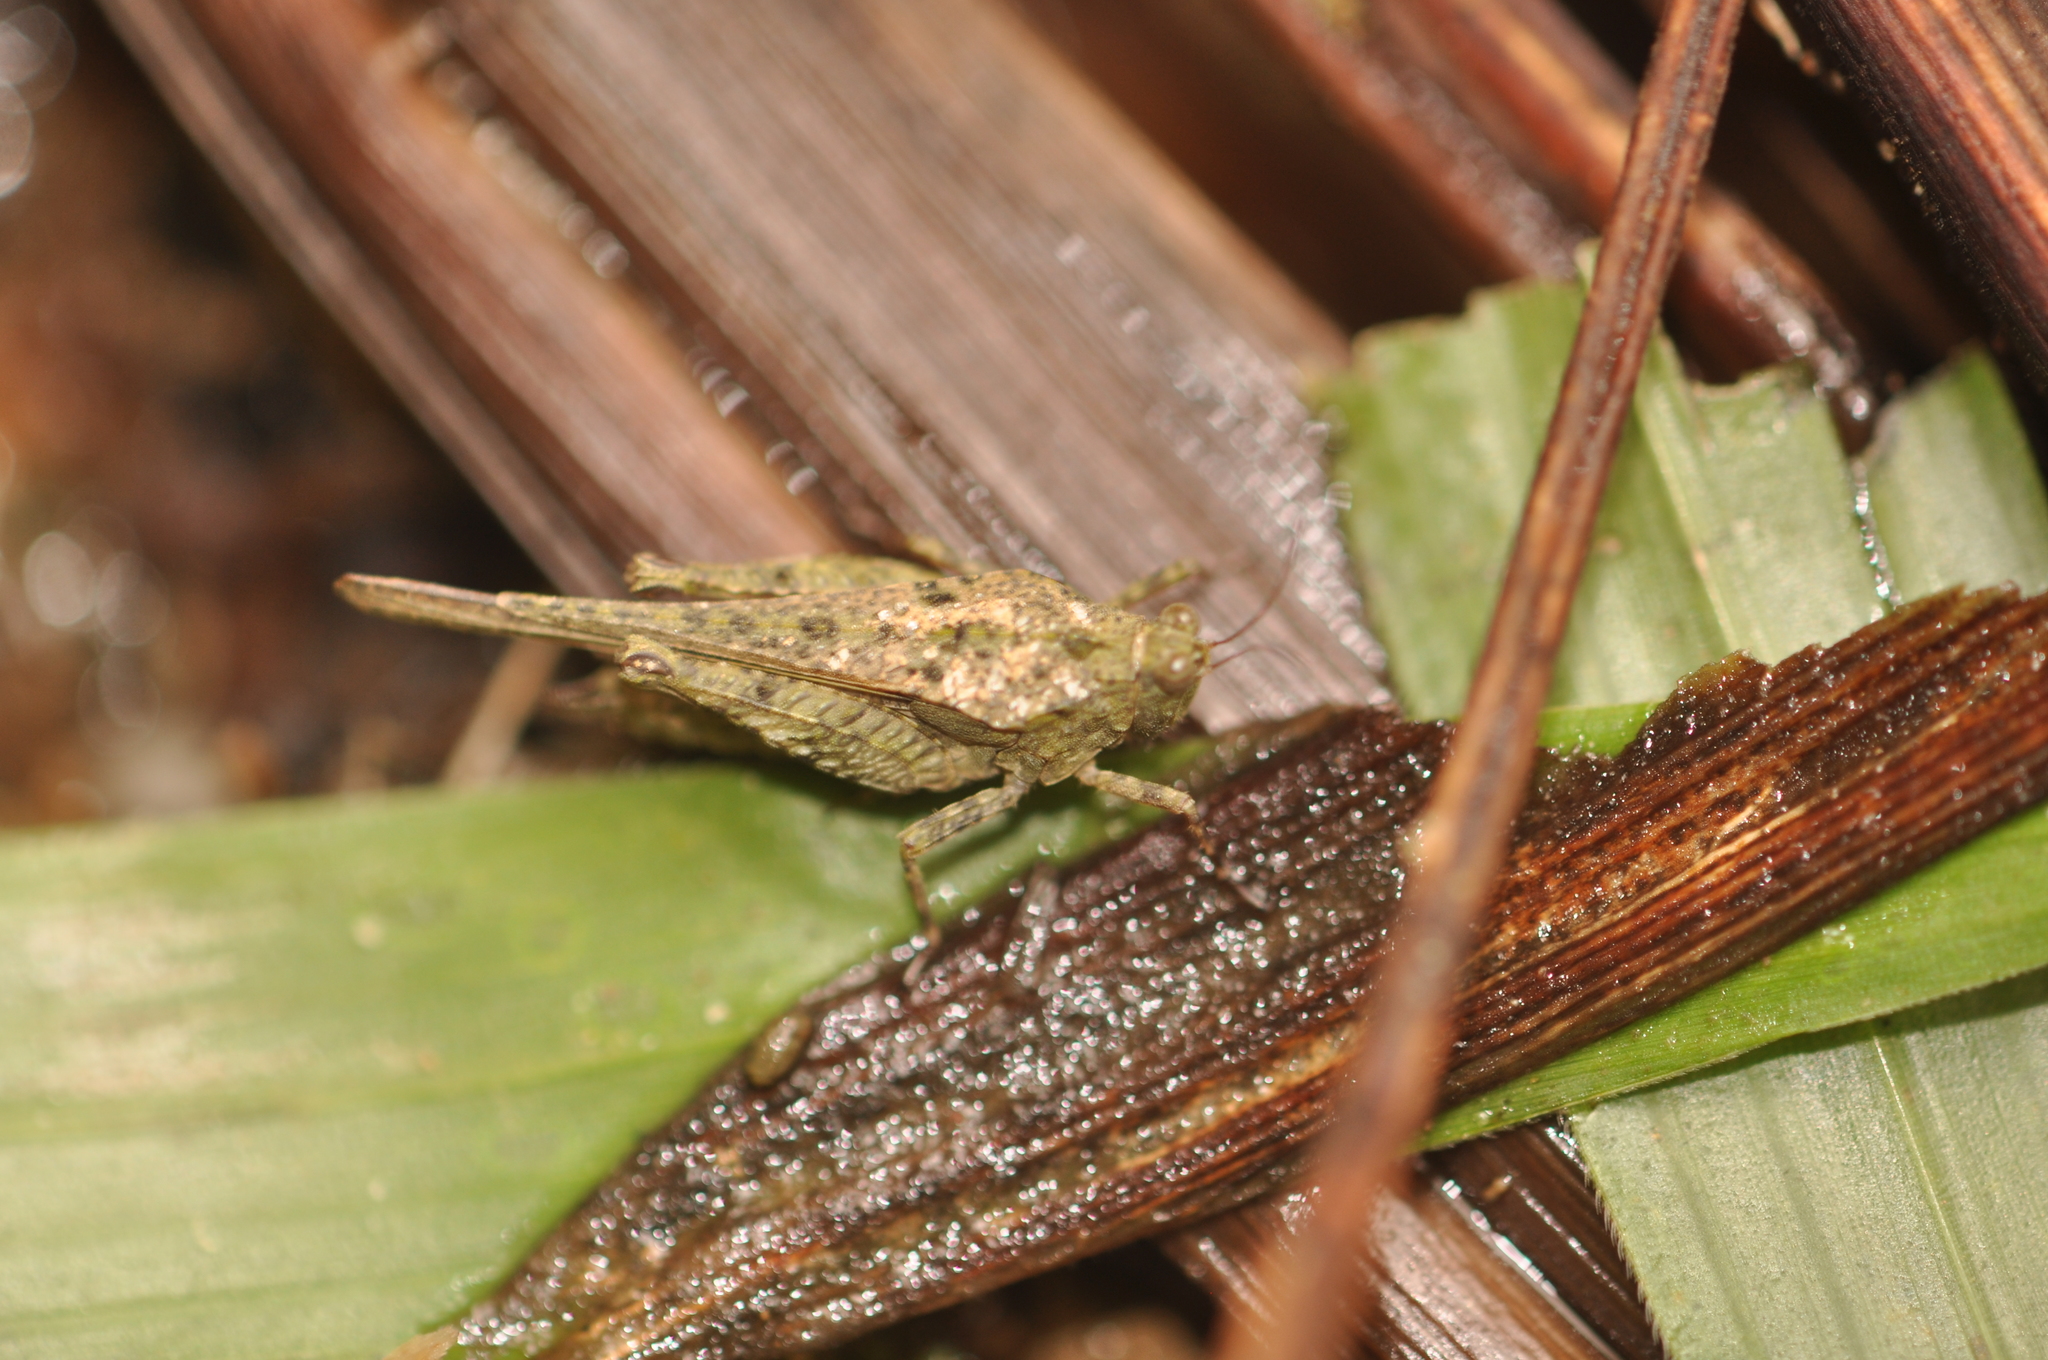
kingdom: Animalia
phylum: Arthropoda
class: Insecta
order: Orthoptera
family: Tetrigidae
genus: Paratettix
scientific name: Paratettix cinereus
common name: Madagascar common pygmy grasshopper
